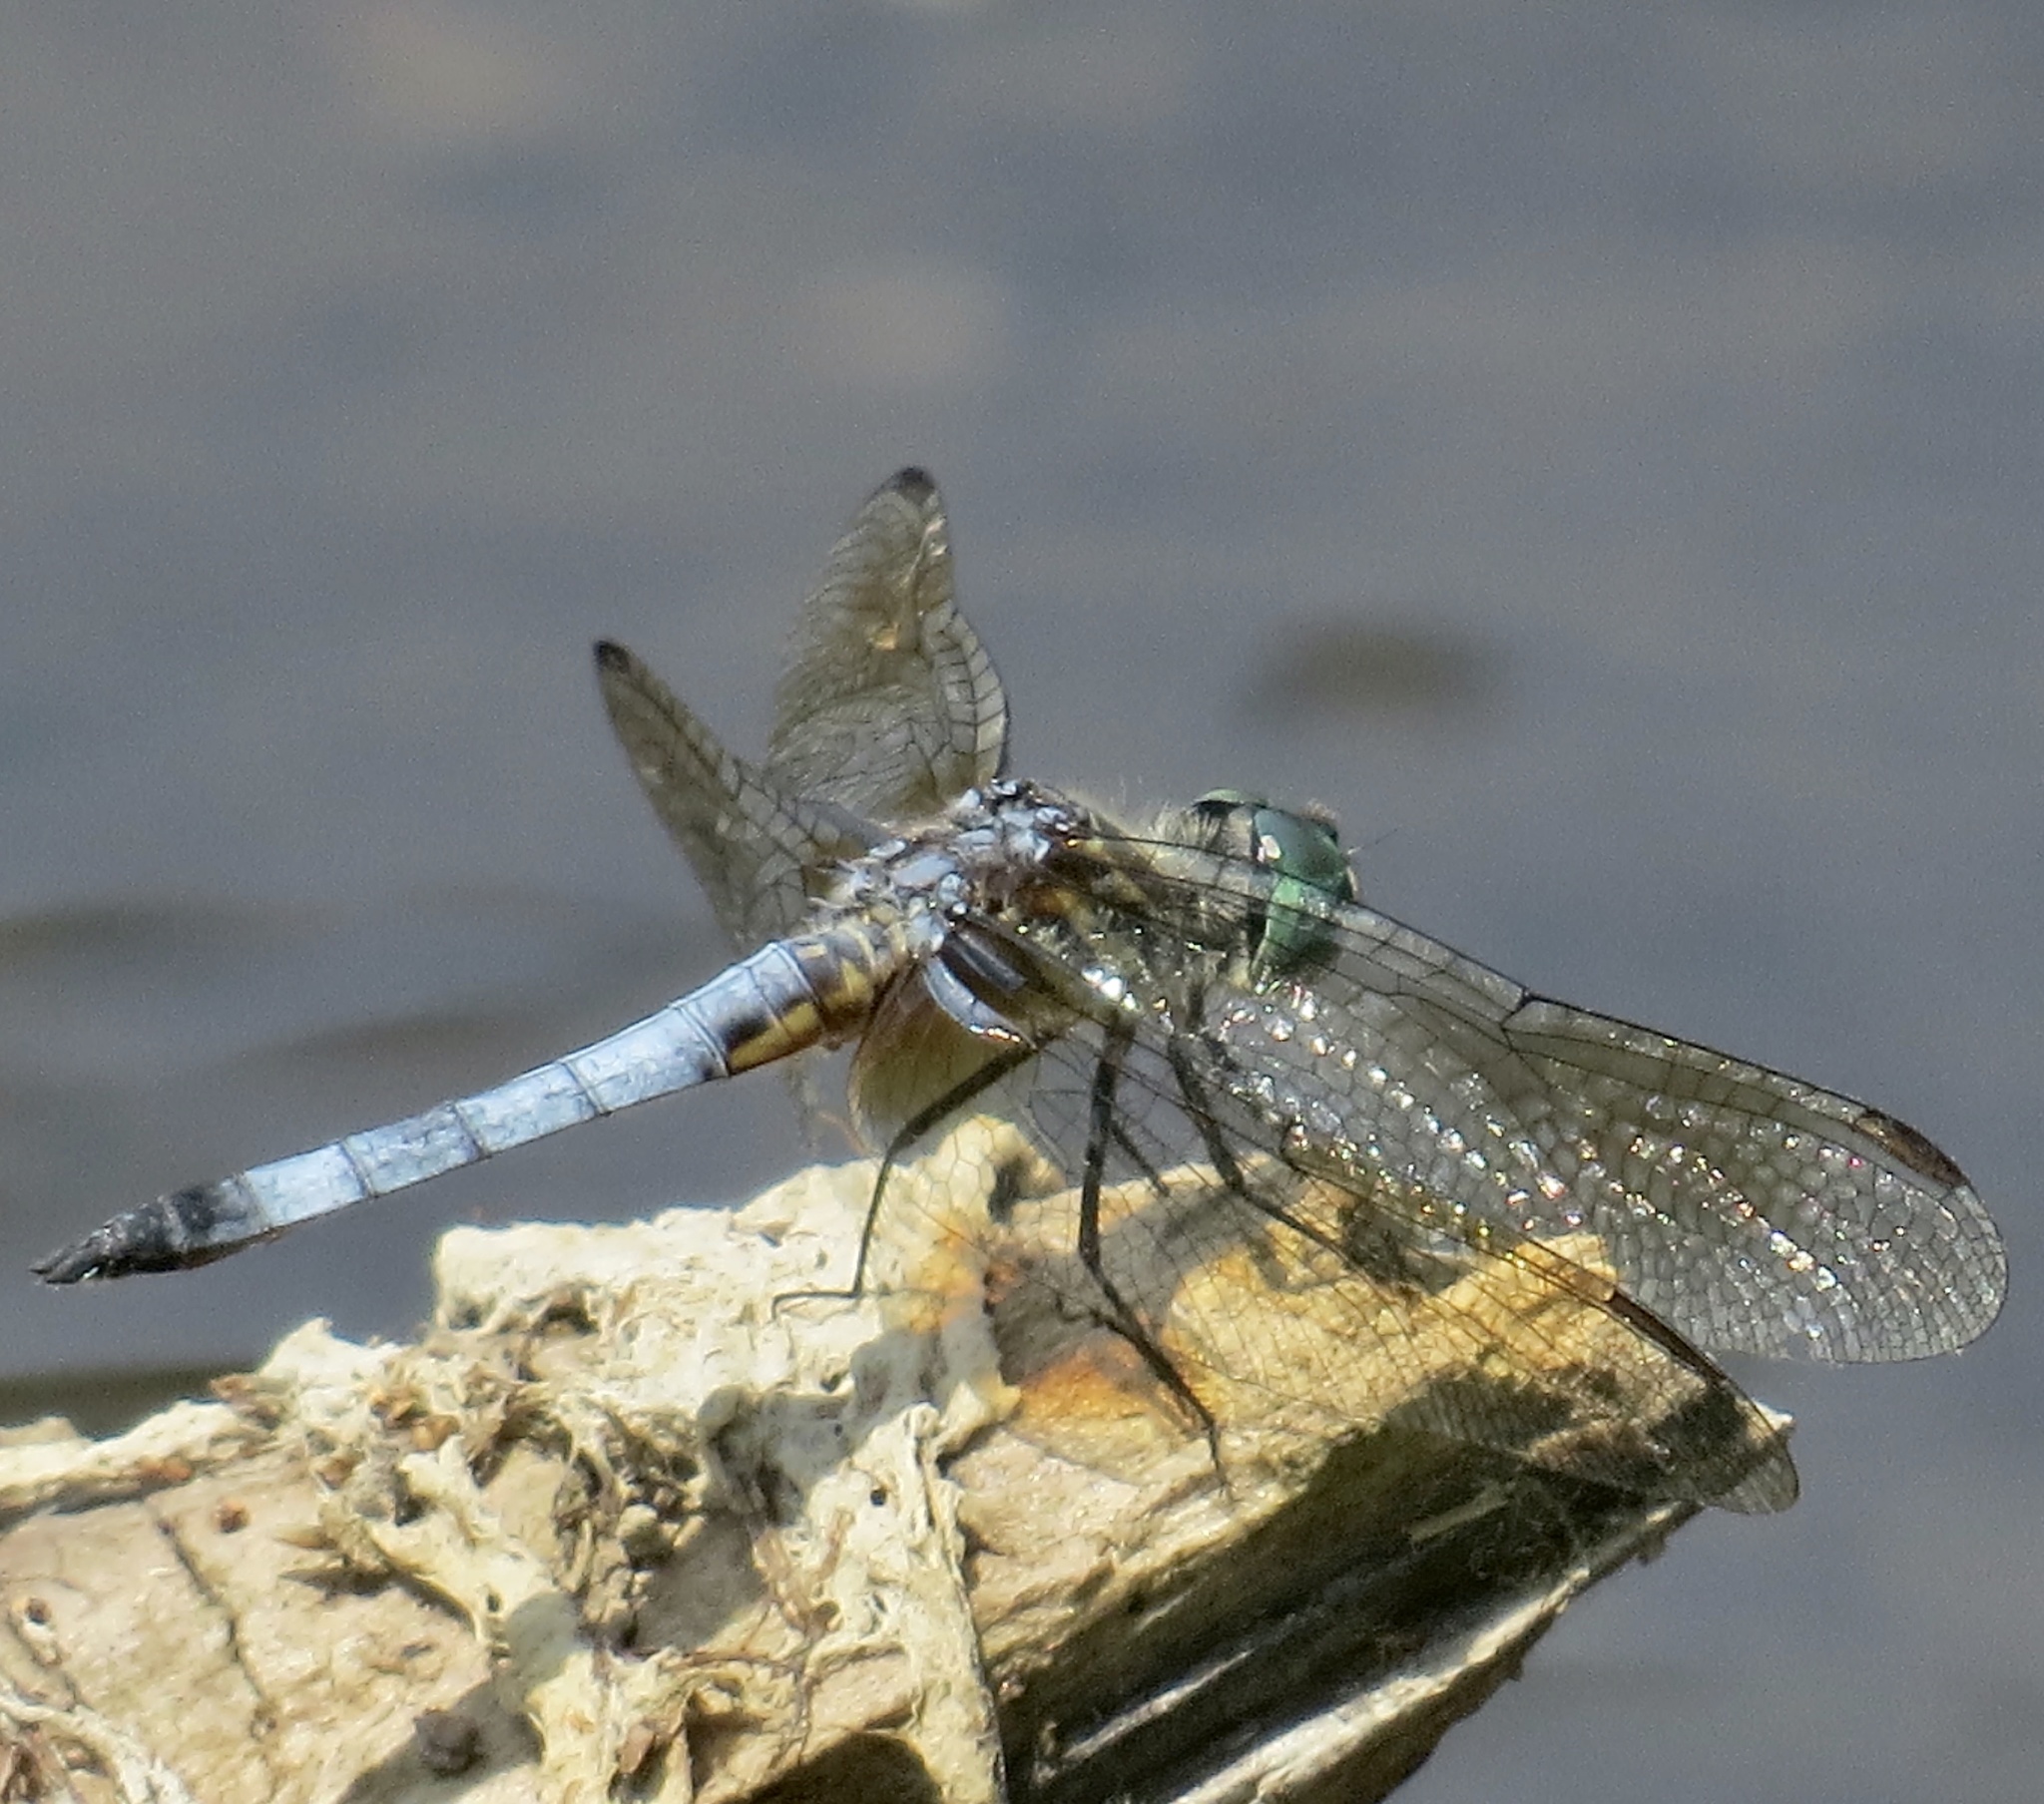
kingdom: Animalia
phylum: Arthropoda
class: Insecta
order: Odonata
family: Libellulidae
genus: Pachydiplax
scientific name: Pachydiplax longipennis
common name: Blue dasher
